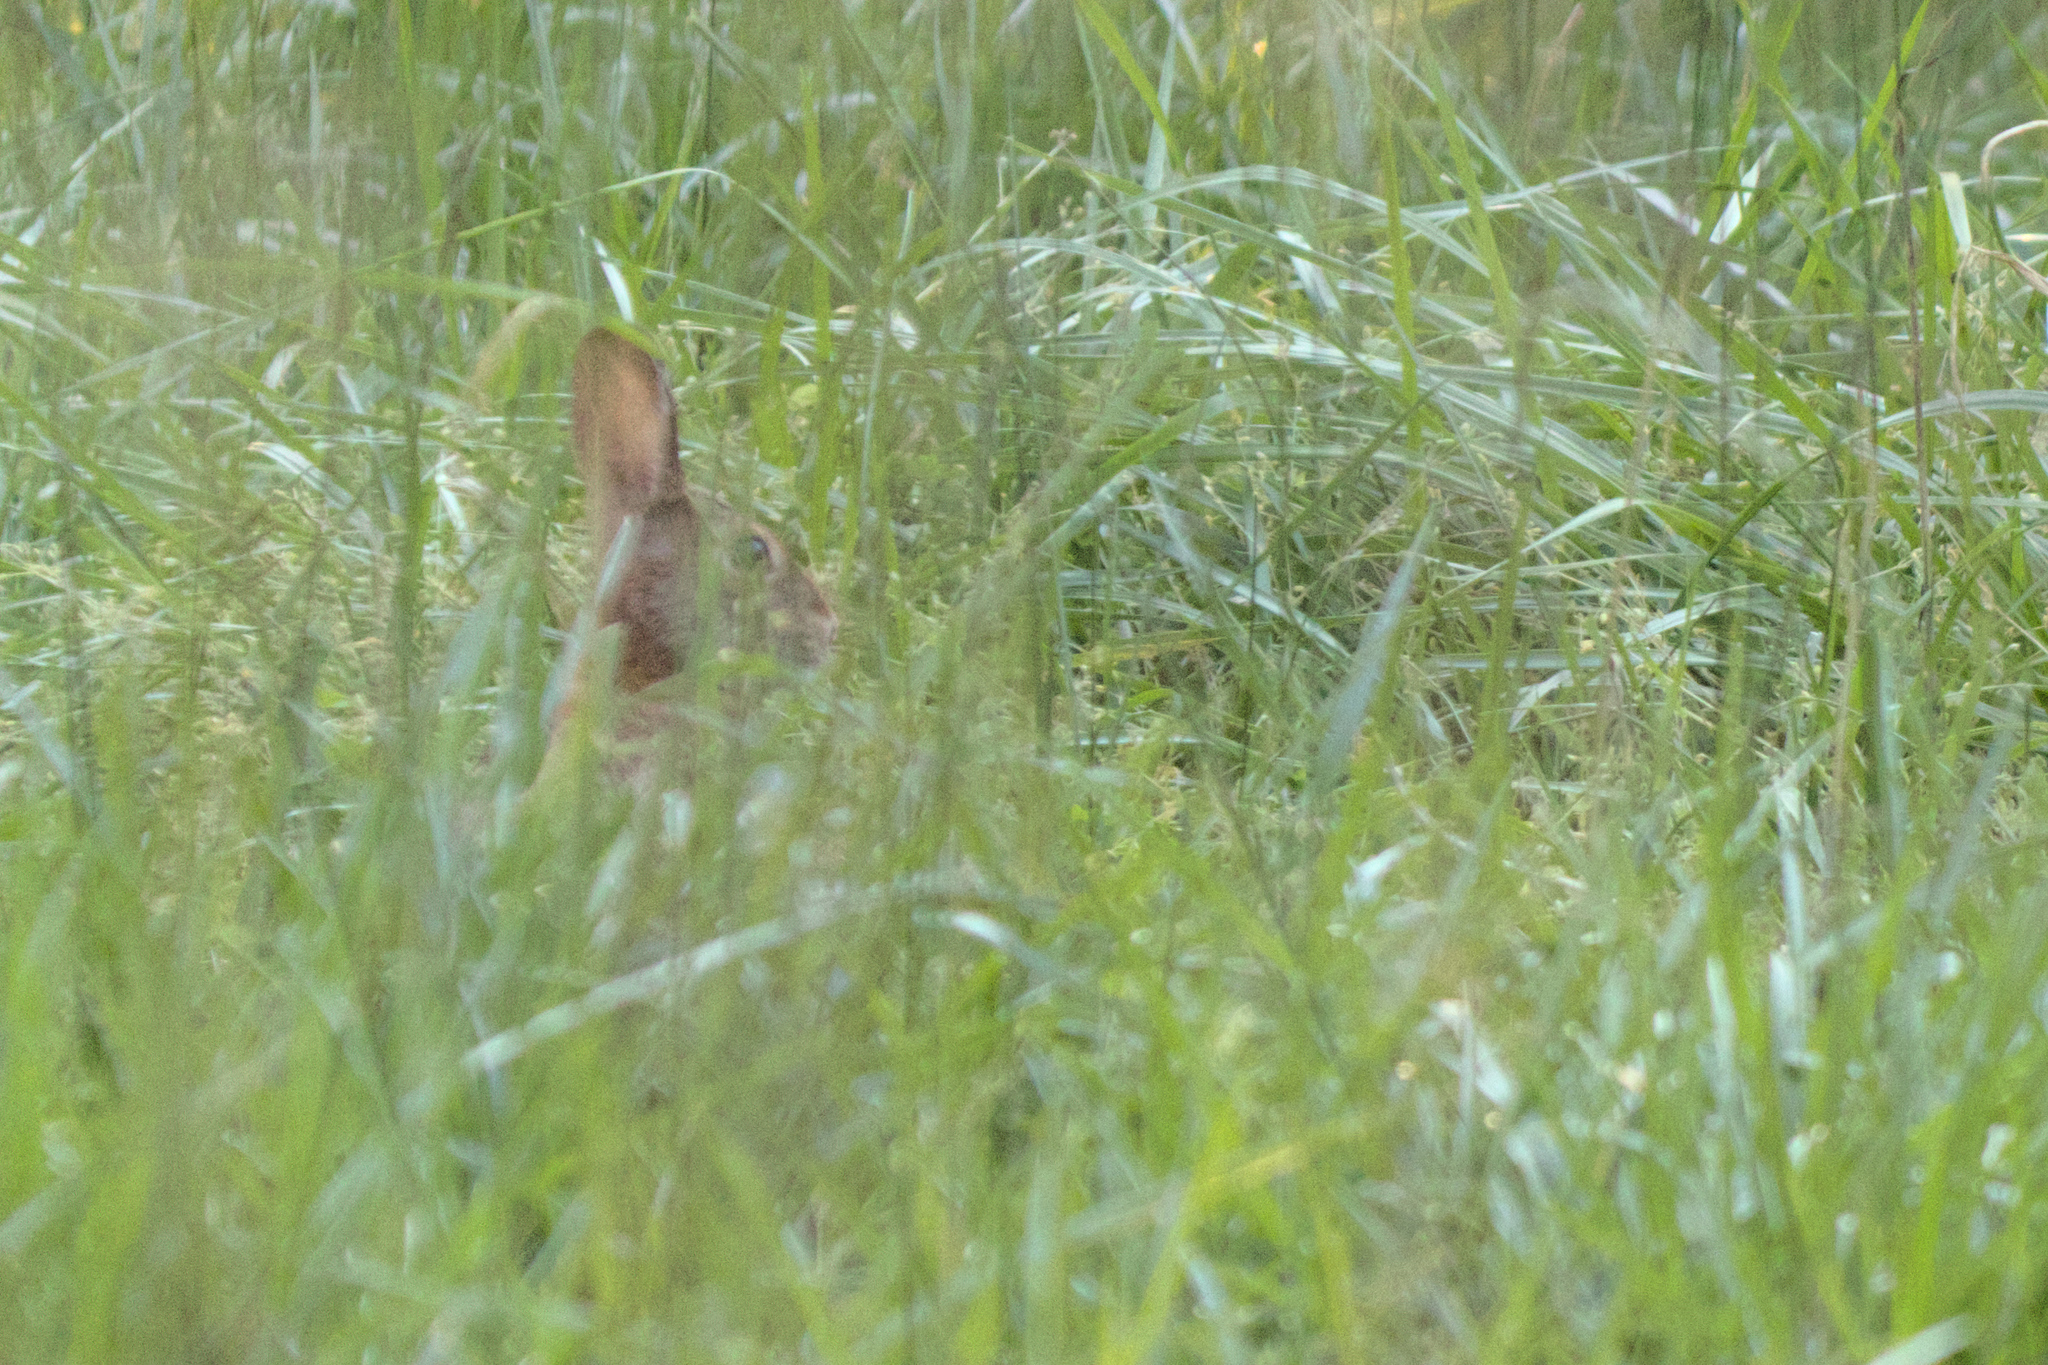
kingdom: Animalia
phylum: Chordata
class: Mammalia
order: Lagomorpha
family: Leporidae
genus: Sylvilagus
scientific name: Sylvilagus floridanus
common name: Eastern cottontail
